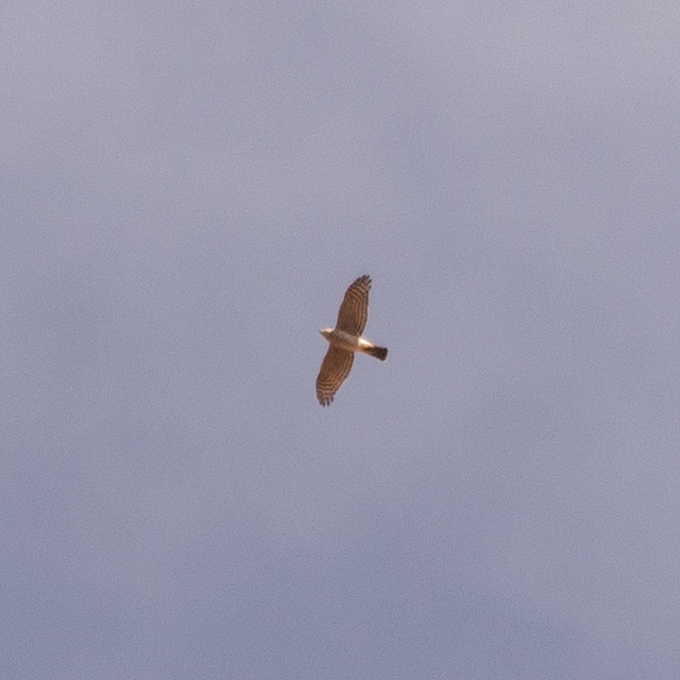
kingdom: Animalia
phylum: Chordata
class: Aves
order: Accipitriformes
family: Accipitridae
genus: Accipiter
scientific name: Accipiter nisus
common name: Eurasian sparrowhawk
